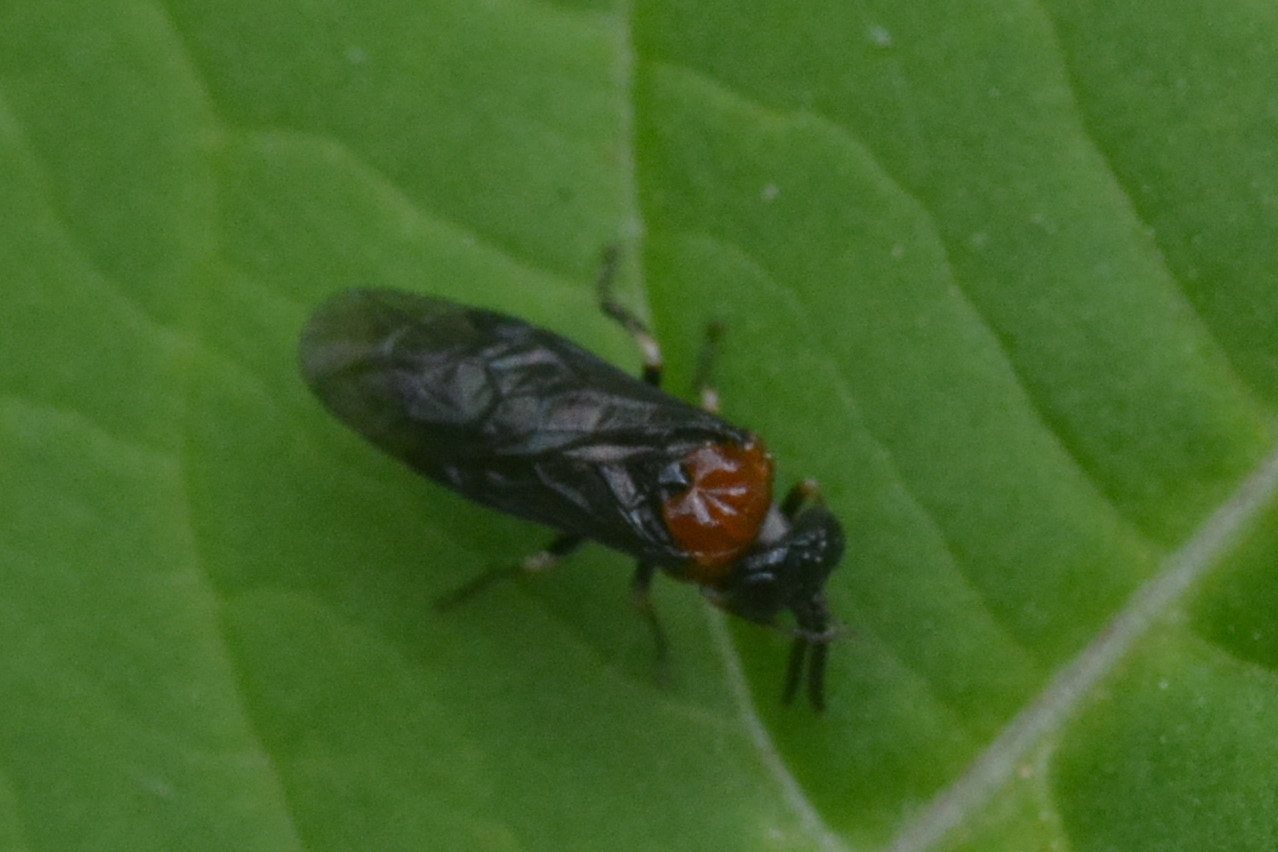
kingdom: Animalia
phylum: Arthropoda
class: Insecta
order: Hymenoptera
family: Tenthredinidae
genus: Eutomostethus
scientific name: Eutomostethus ephippium
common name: Tenthredid wasp
